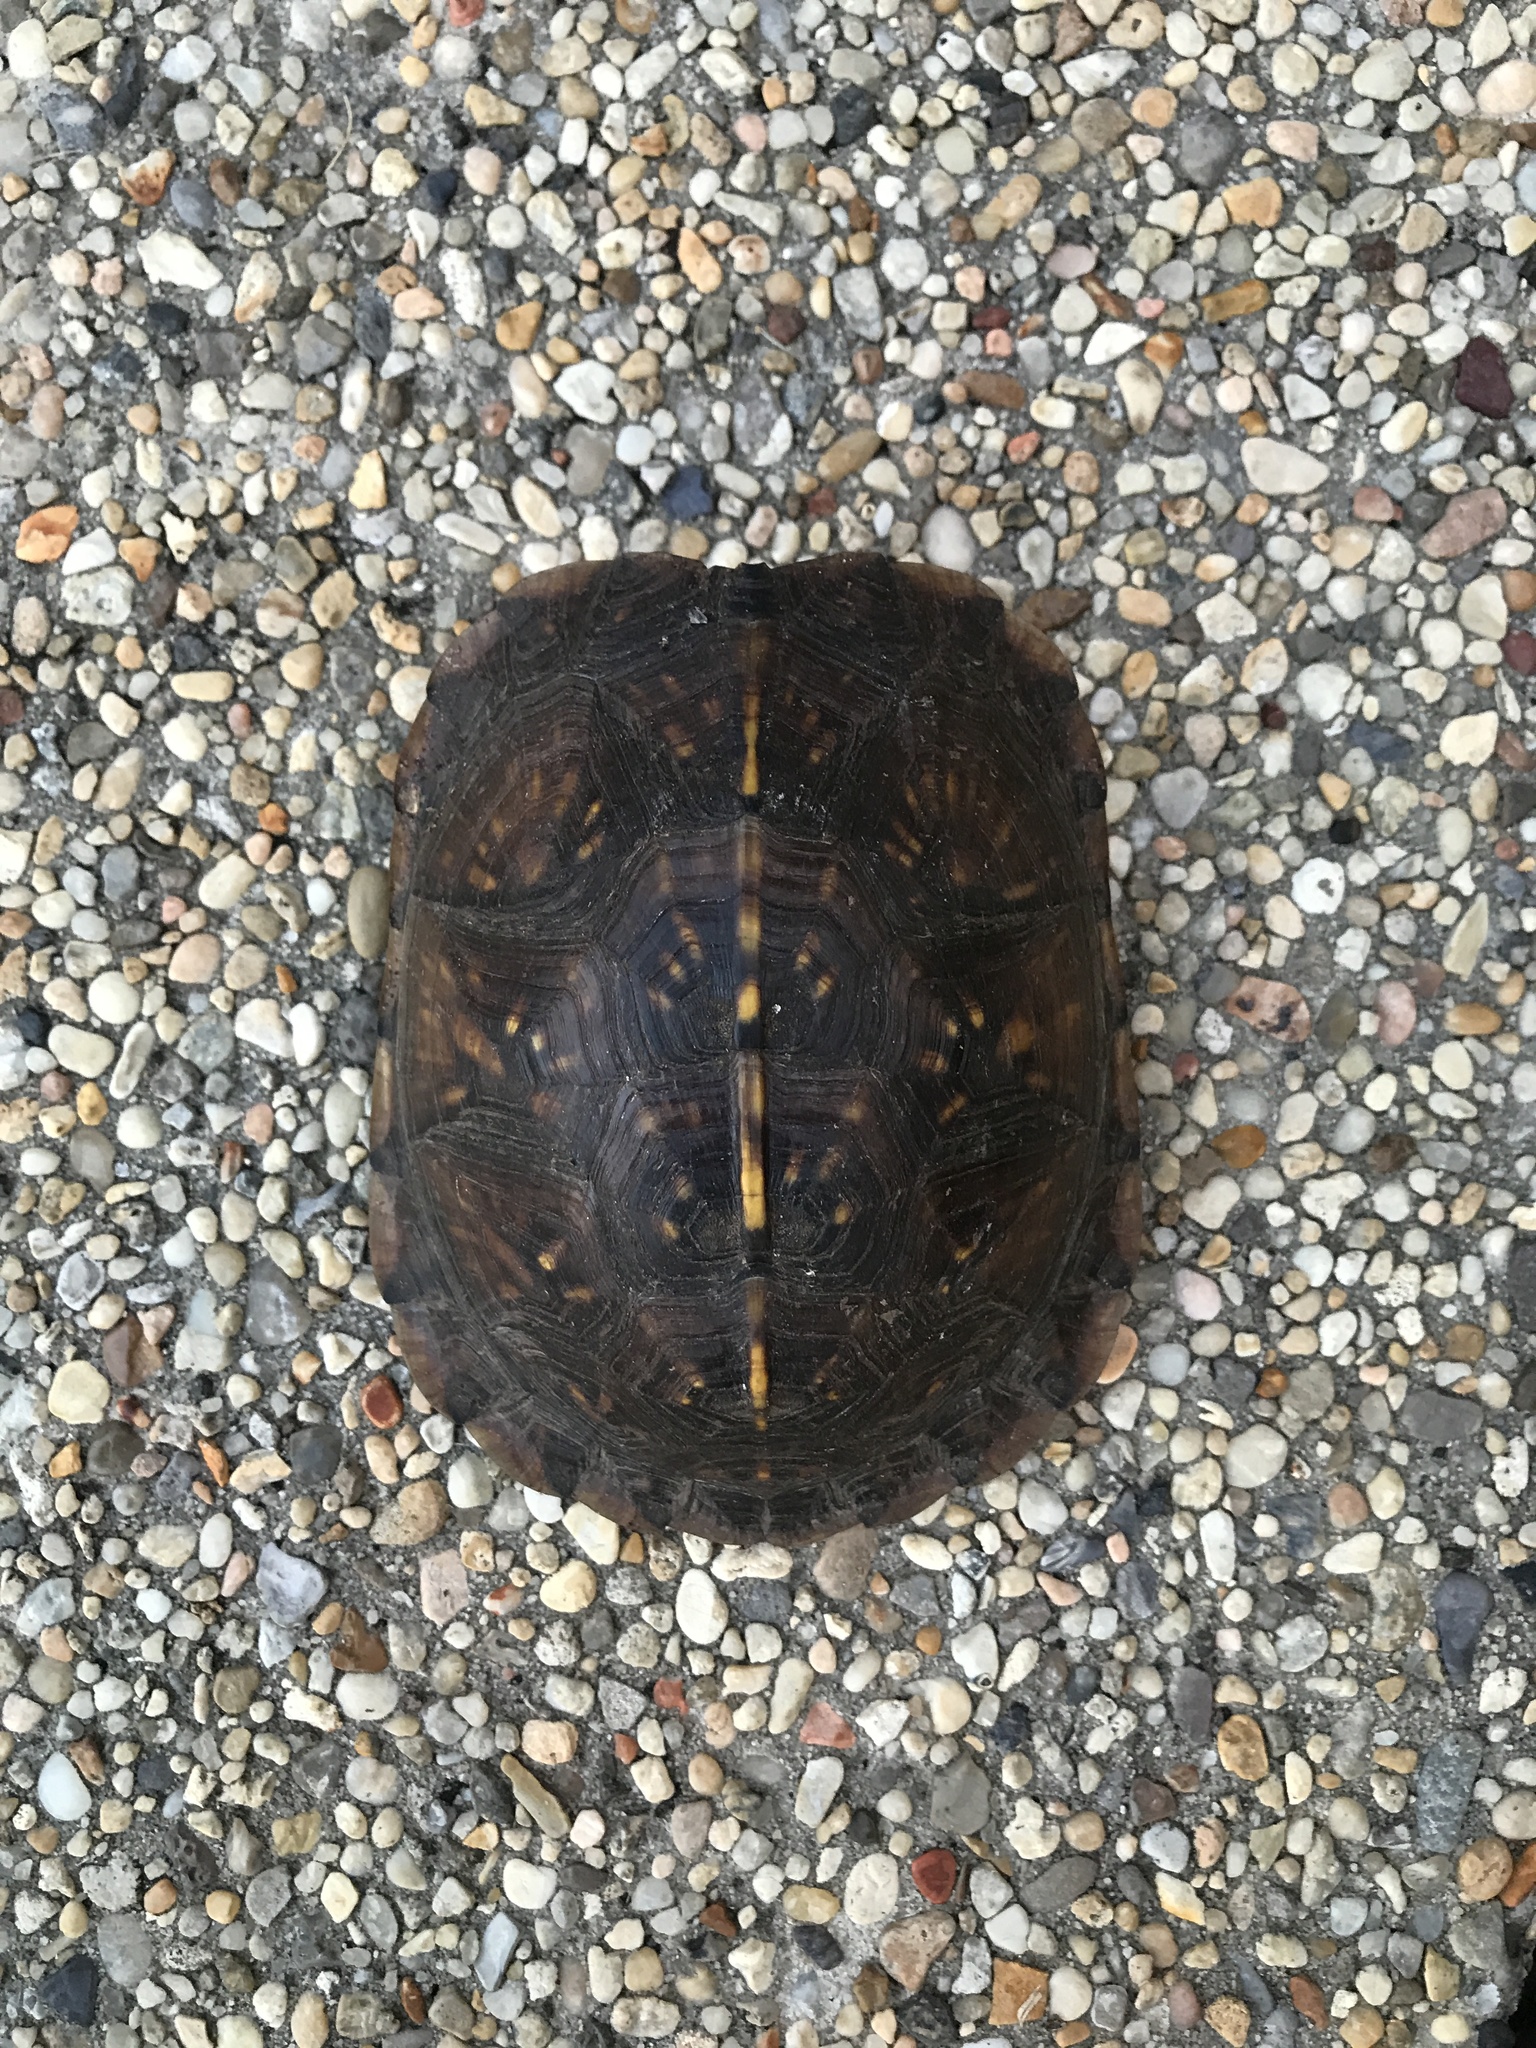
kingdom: Animalia
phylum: Chordata
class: Testudines
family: Emydidae
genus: Terrapene
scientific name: Terrapene carolina
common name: Common box turtle
